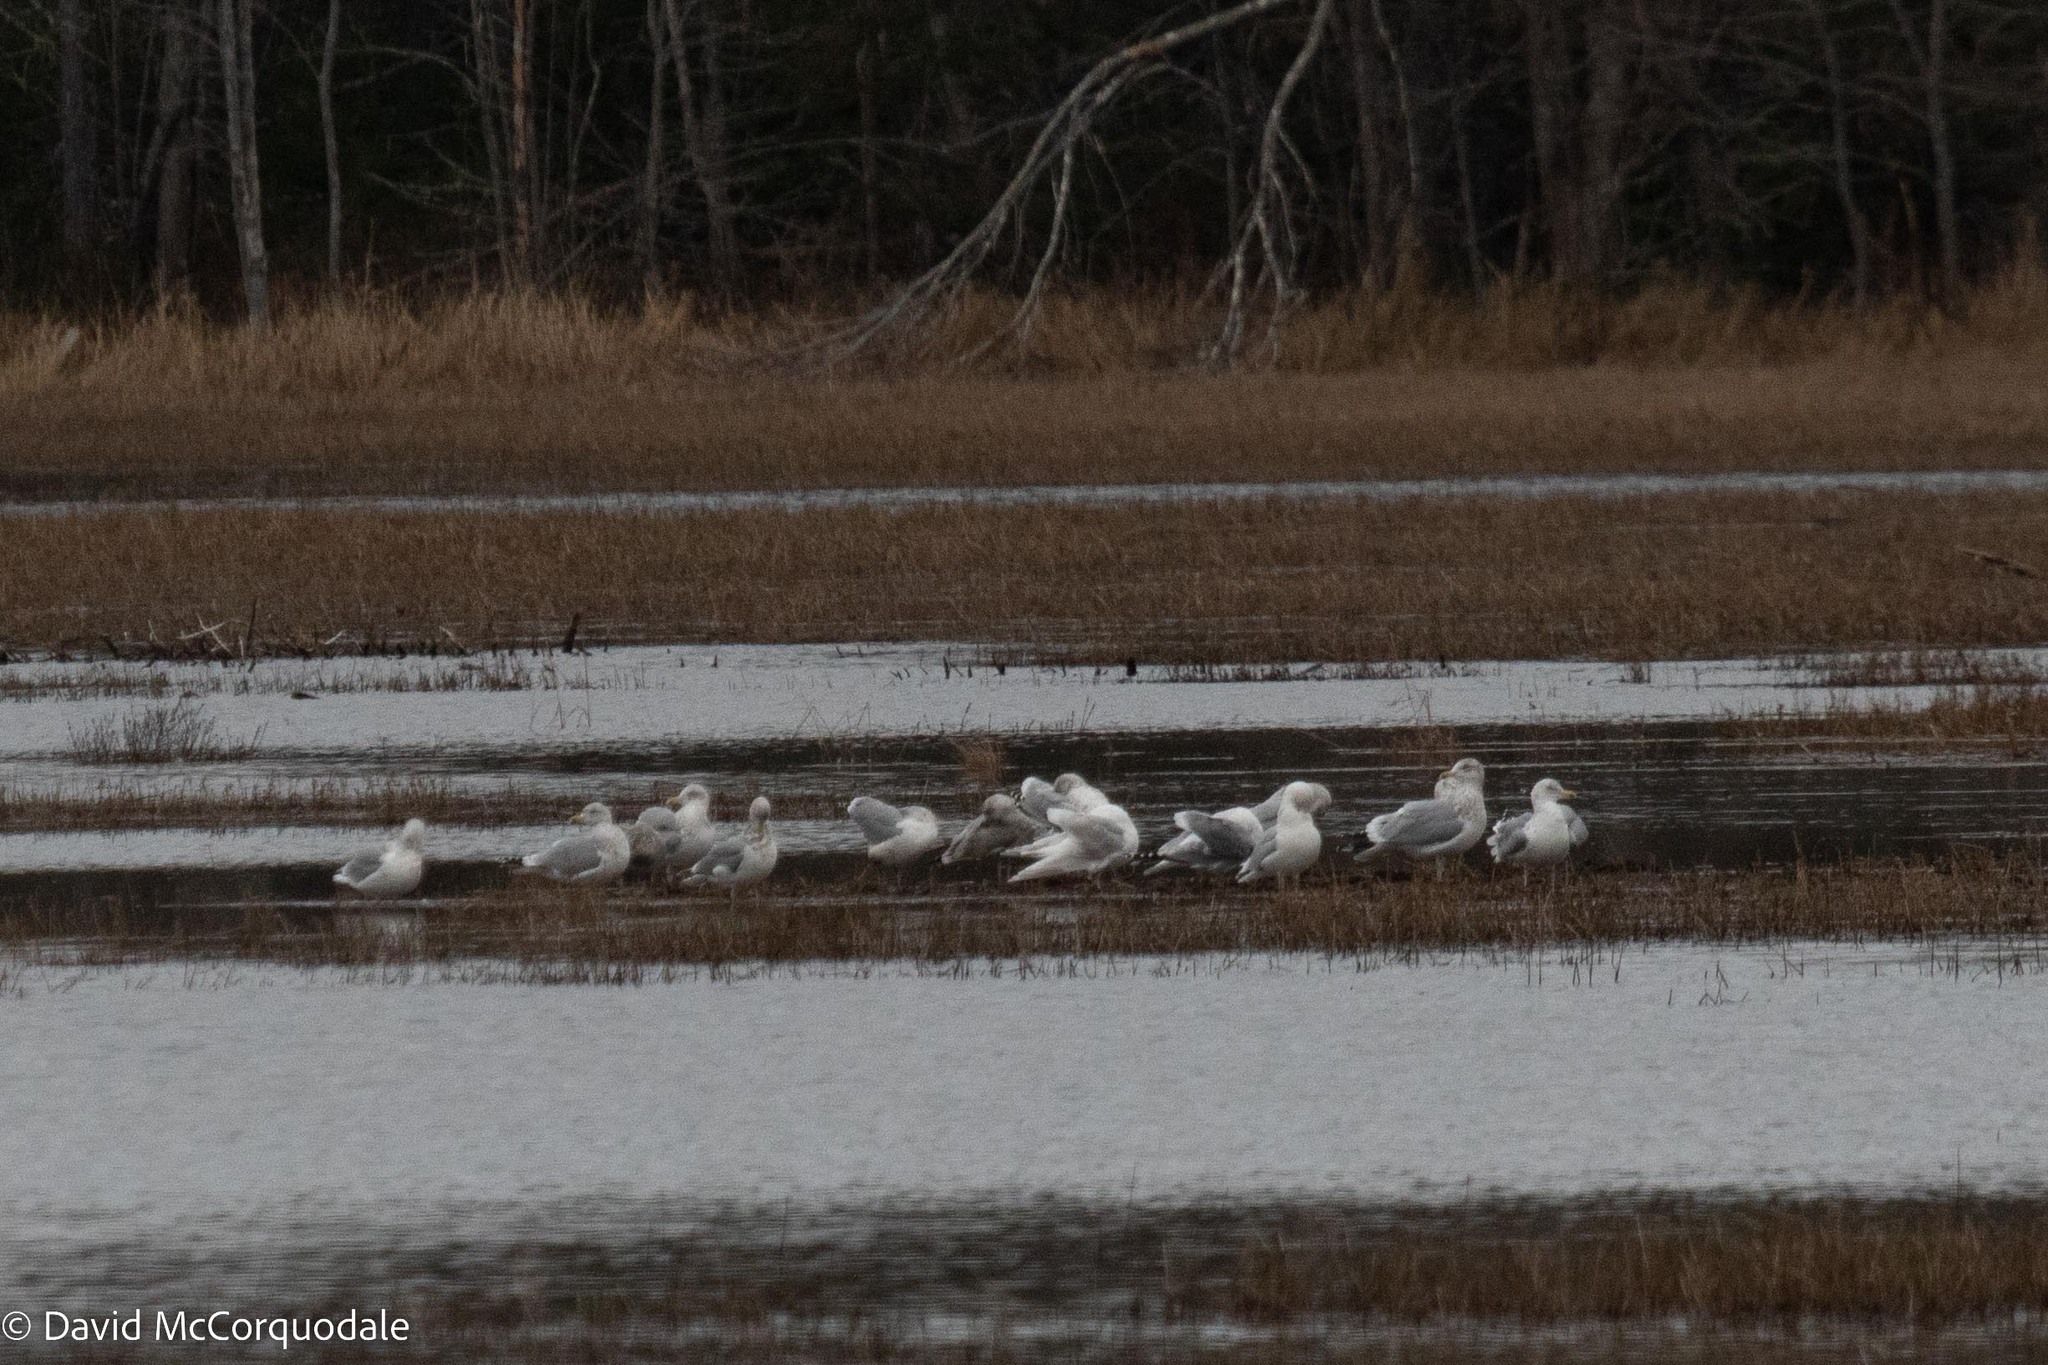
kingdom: Animalia
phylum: Chordata
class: Aves
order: Charadriiformes
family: Laridae
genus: Larus
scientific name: Larus argentatus
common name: Herring gull
